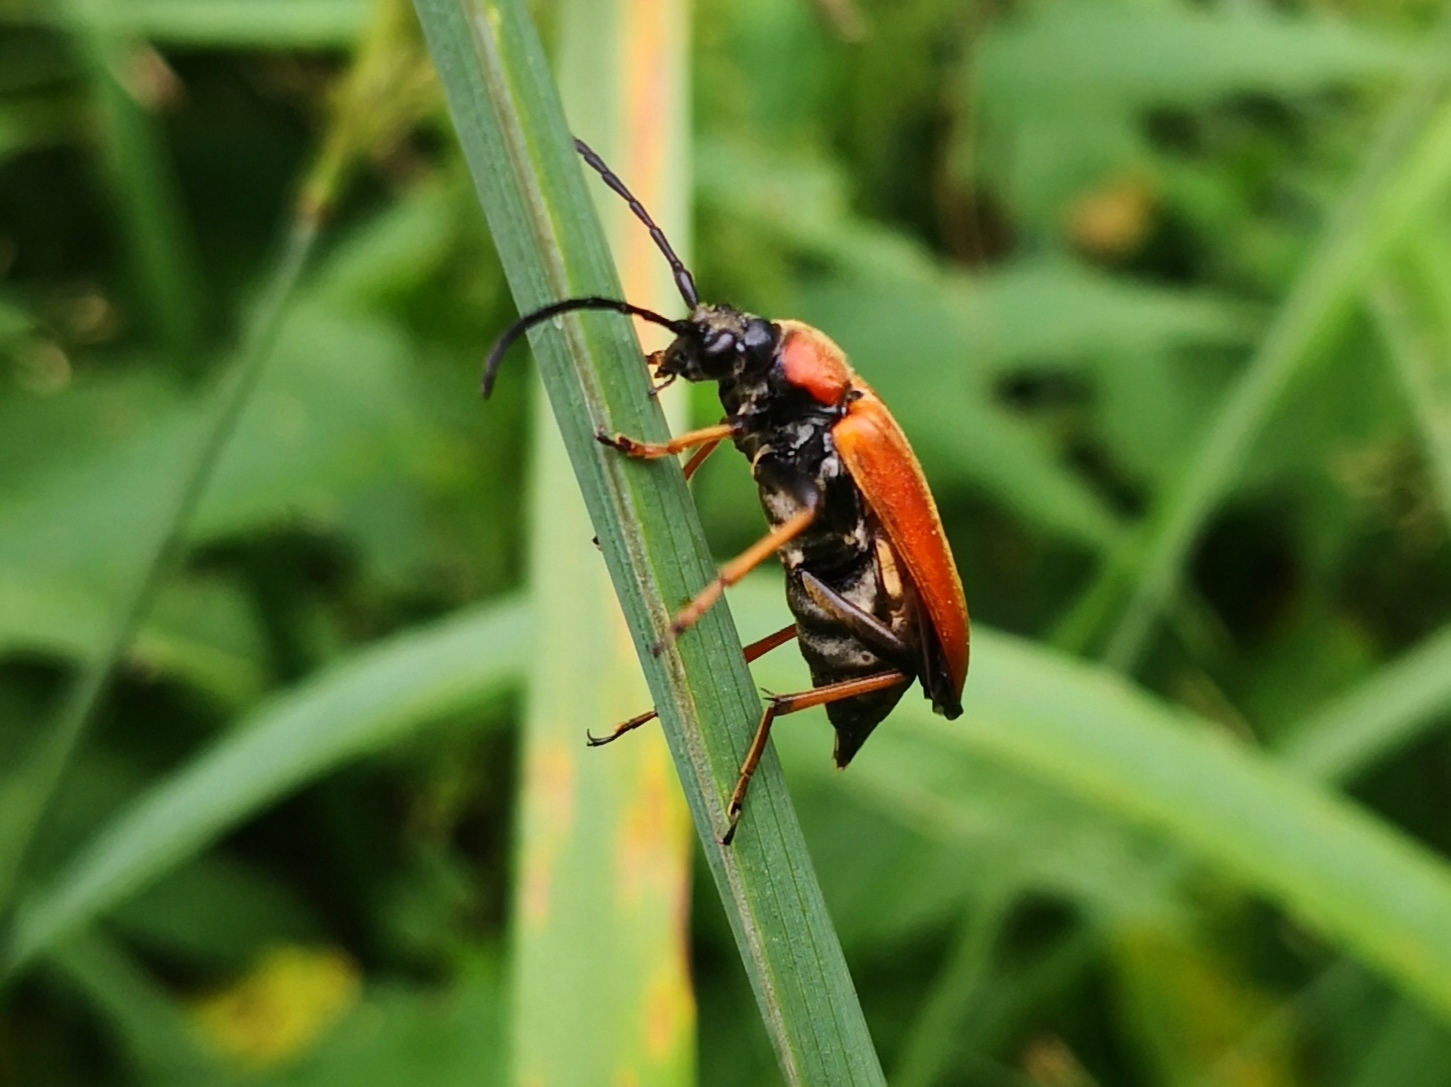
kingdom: Animalia
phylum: Arthropoda
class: Insecta
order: Coleoptera
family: Cerambycidae
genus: Stictoleptura
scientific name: Stictoleptura rubra
